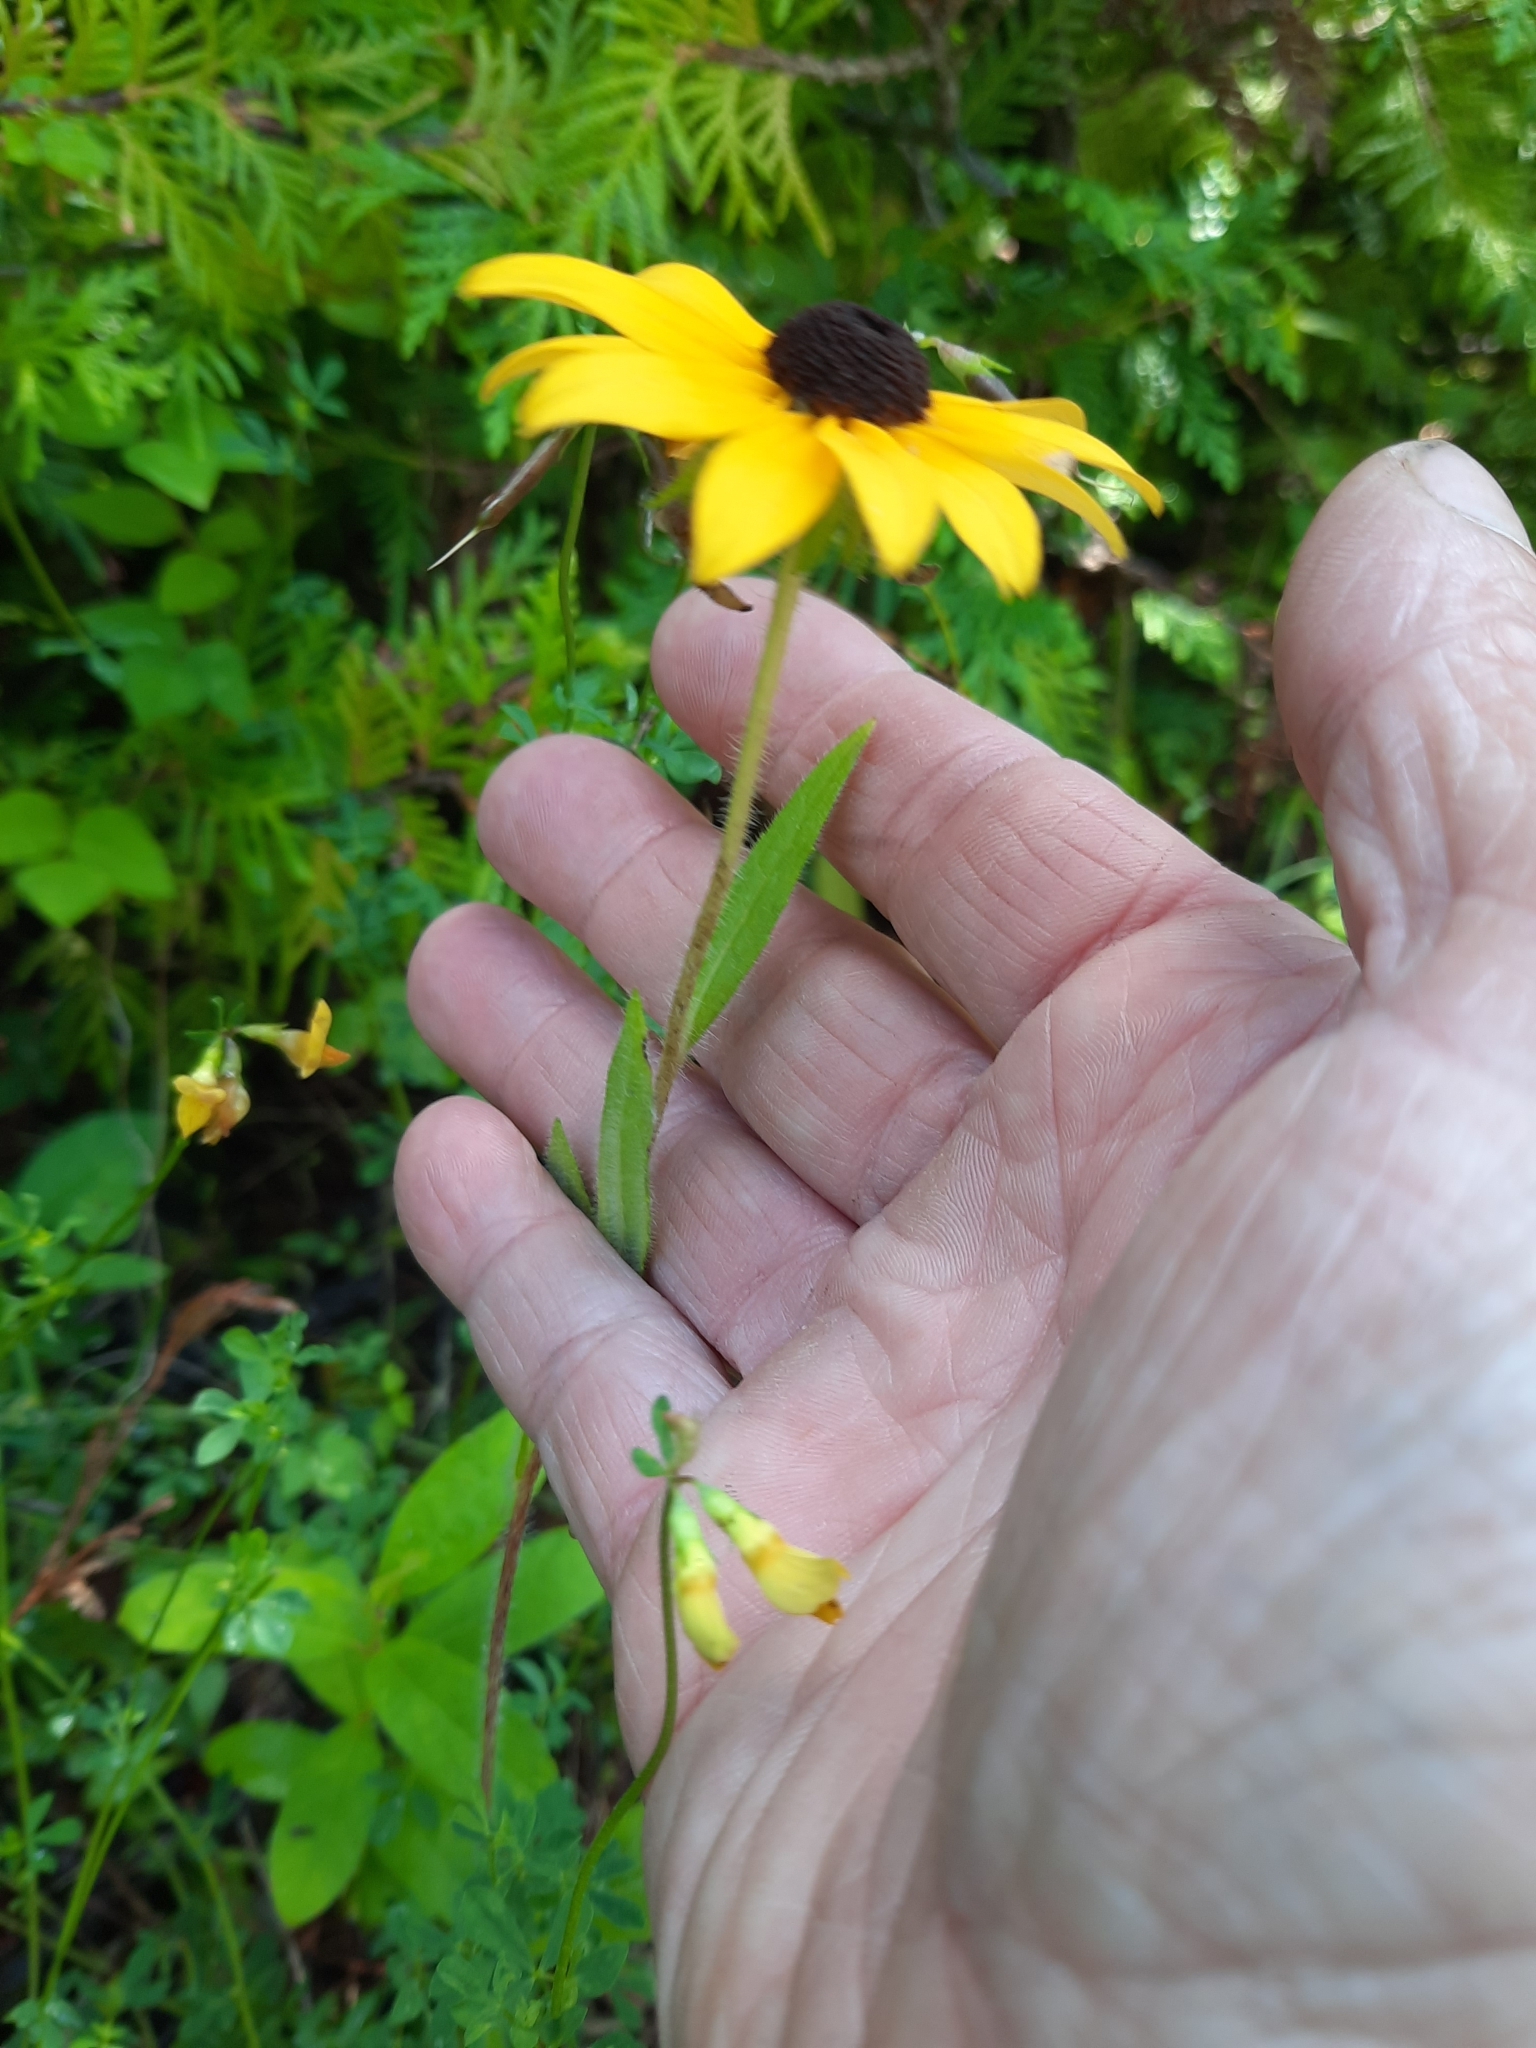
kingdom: Plantae
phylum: Tracheophyta
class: Magnoliopsida
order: Asterales
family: Asteraceae
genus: Rudbeckia
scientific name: Rudbeckia hirta
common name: Black-eyed-susan
